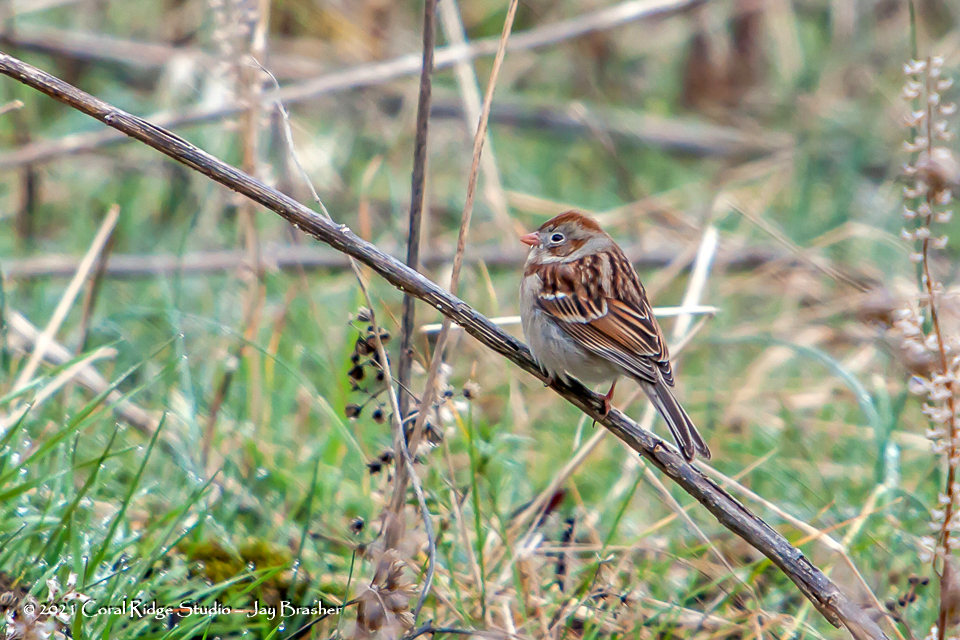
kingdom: Animalia
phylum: Chordata
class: Aves
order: Passeriformes
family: Passerellidae
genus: Spizella
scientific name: Spizella pusilla
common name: Field sparrow
